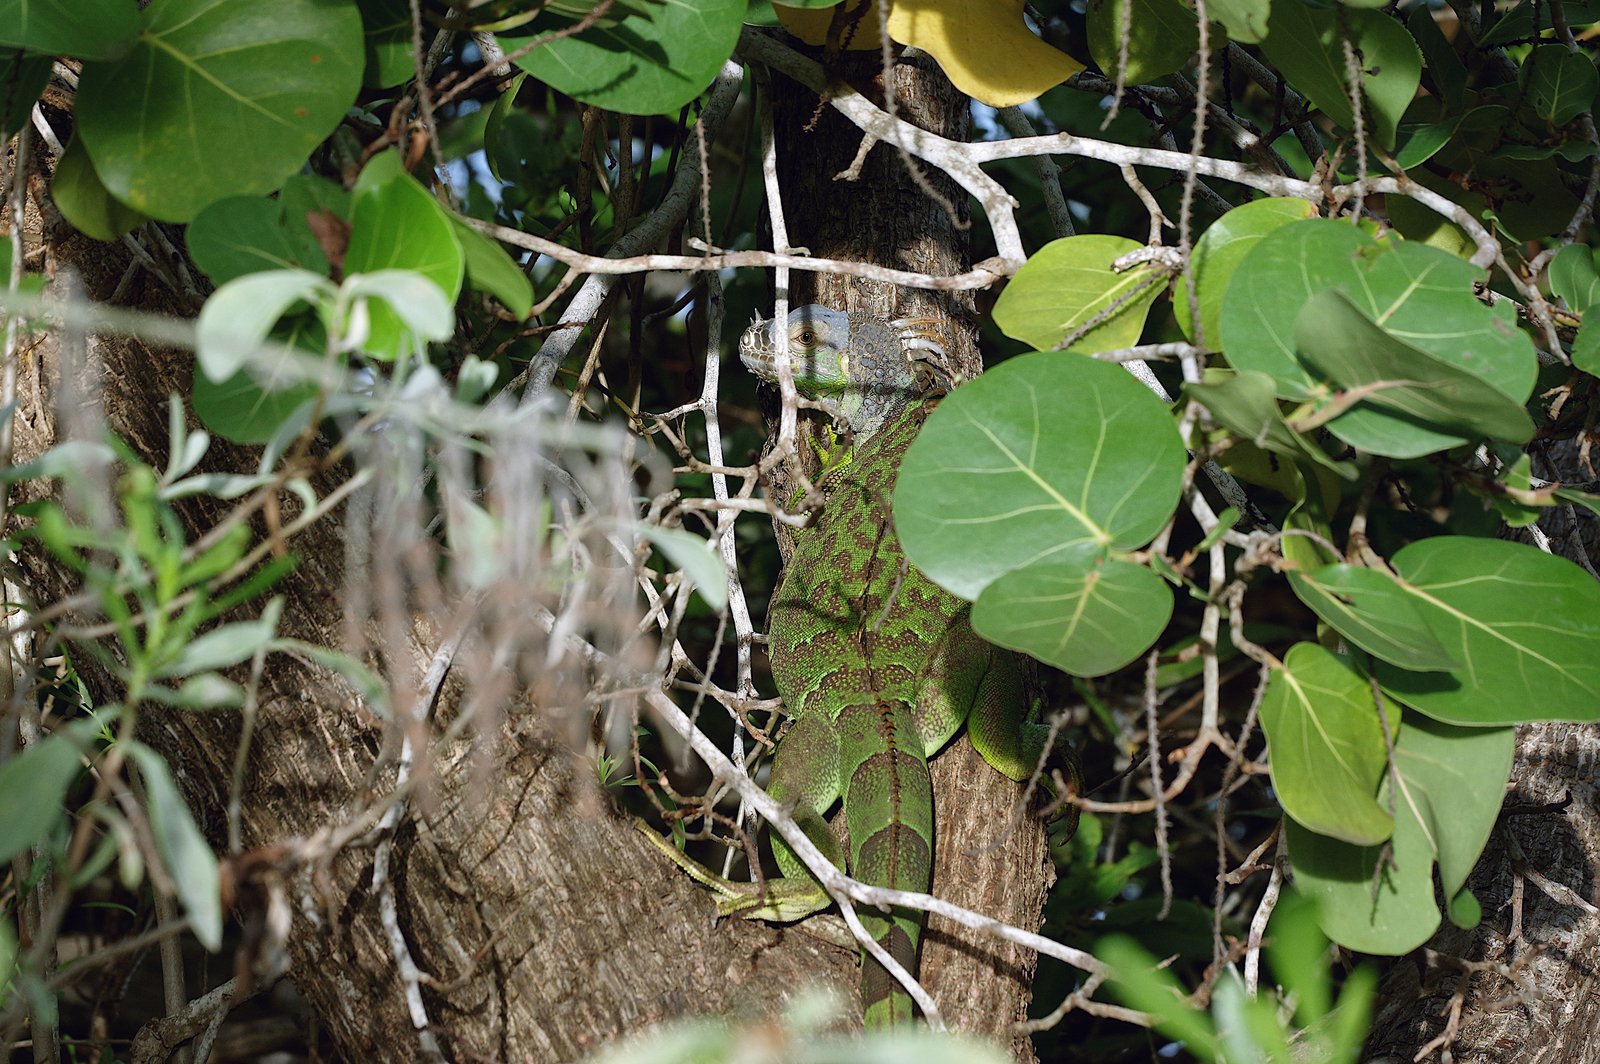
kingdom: Animalia
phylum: Chordata
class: Squamata
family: Iguanidae
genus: Iguana
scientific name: Iguana iguana
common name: Green iguana
